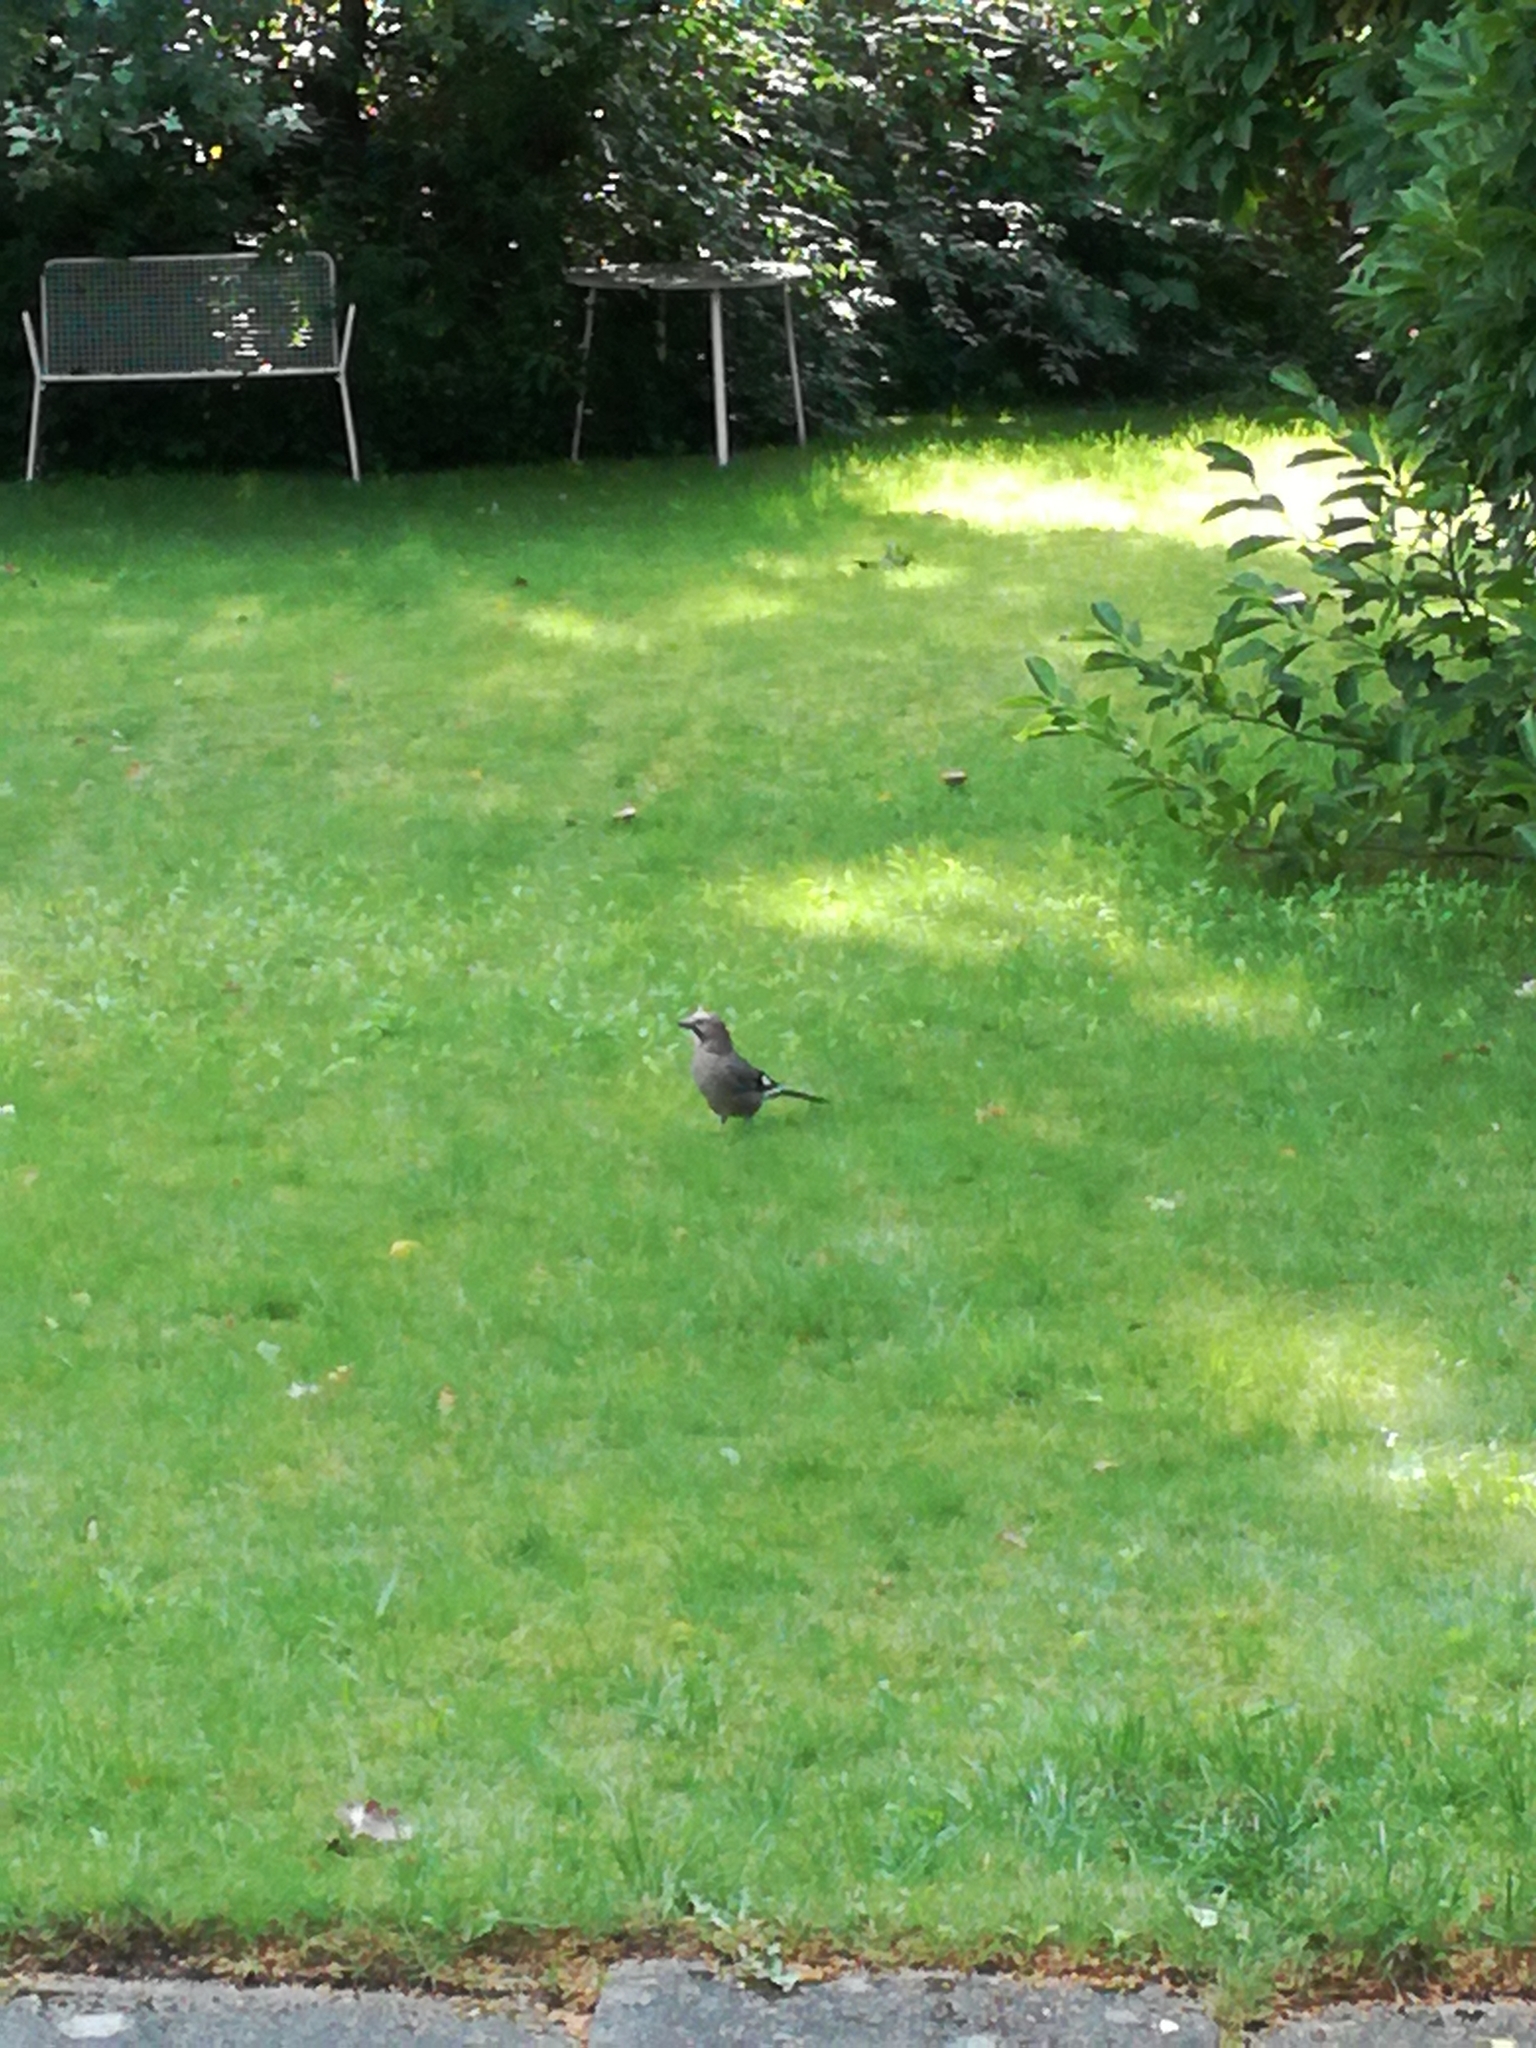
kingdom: Animalia
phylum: Chordata
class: Aves
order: Passeriformes
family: Corvidae
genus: Garrulus
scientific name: Garrulus glandarius
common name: Eurasian jay
